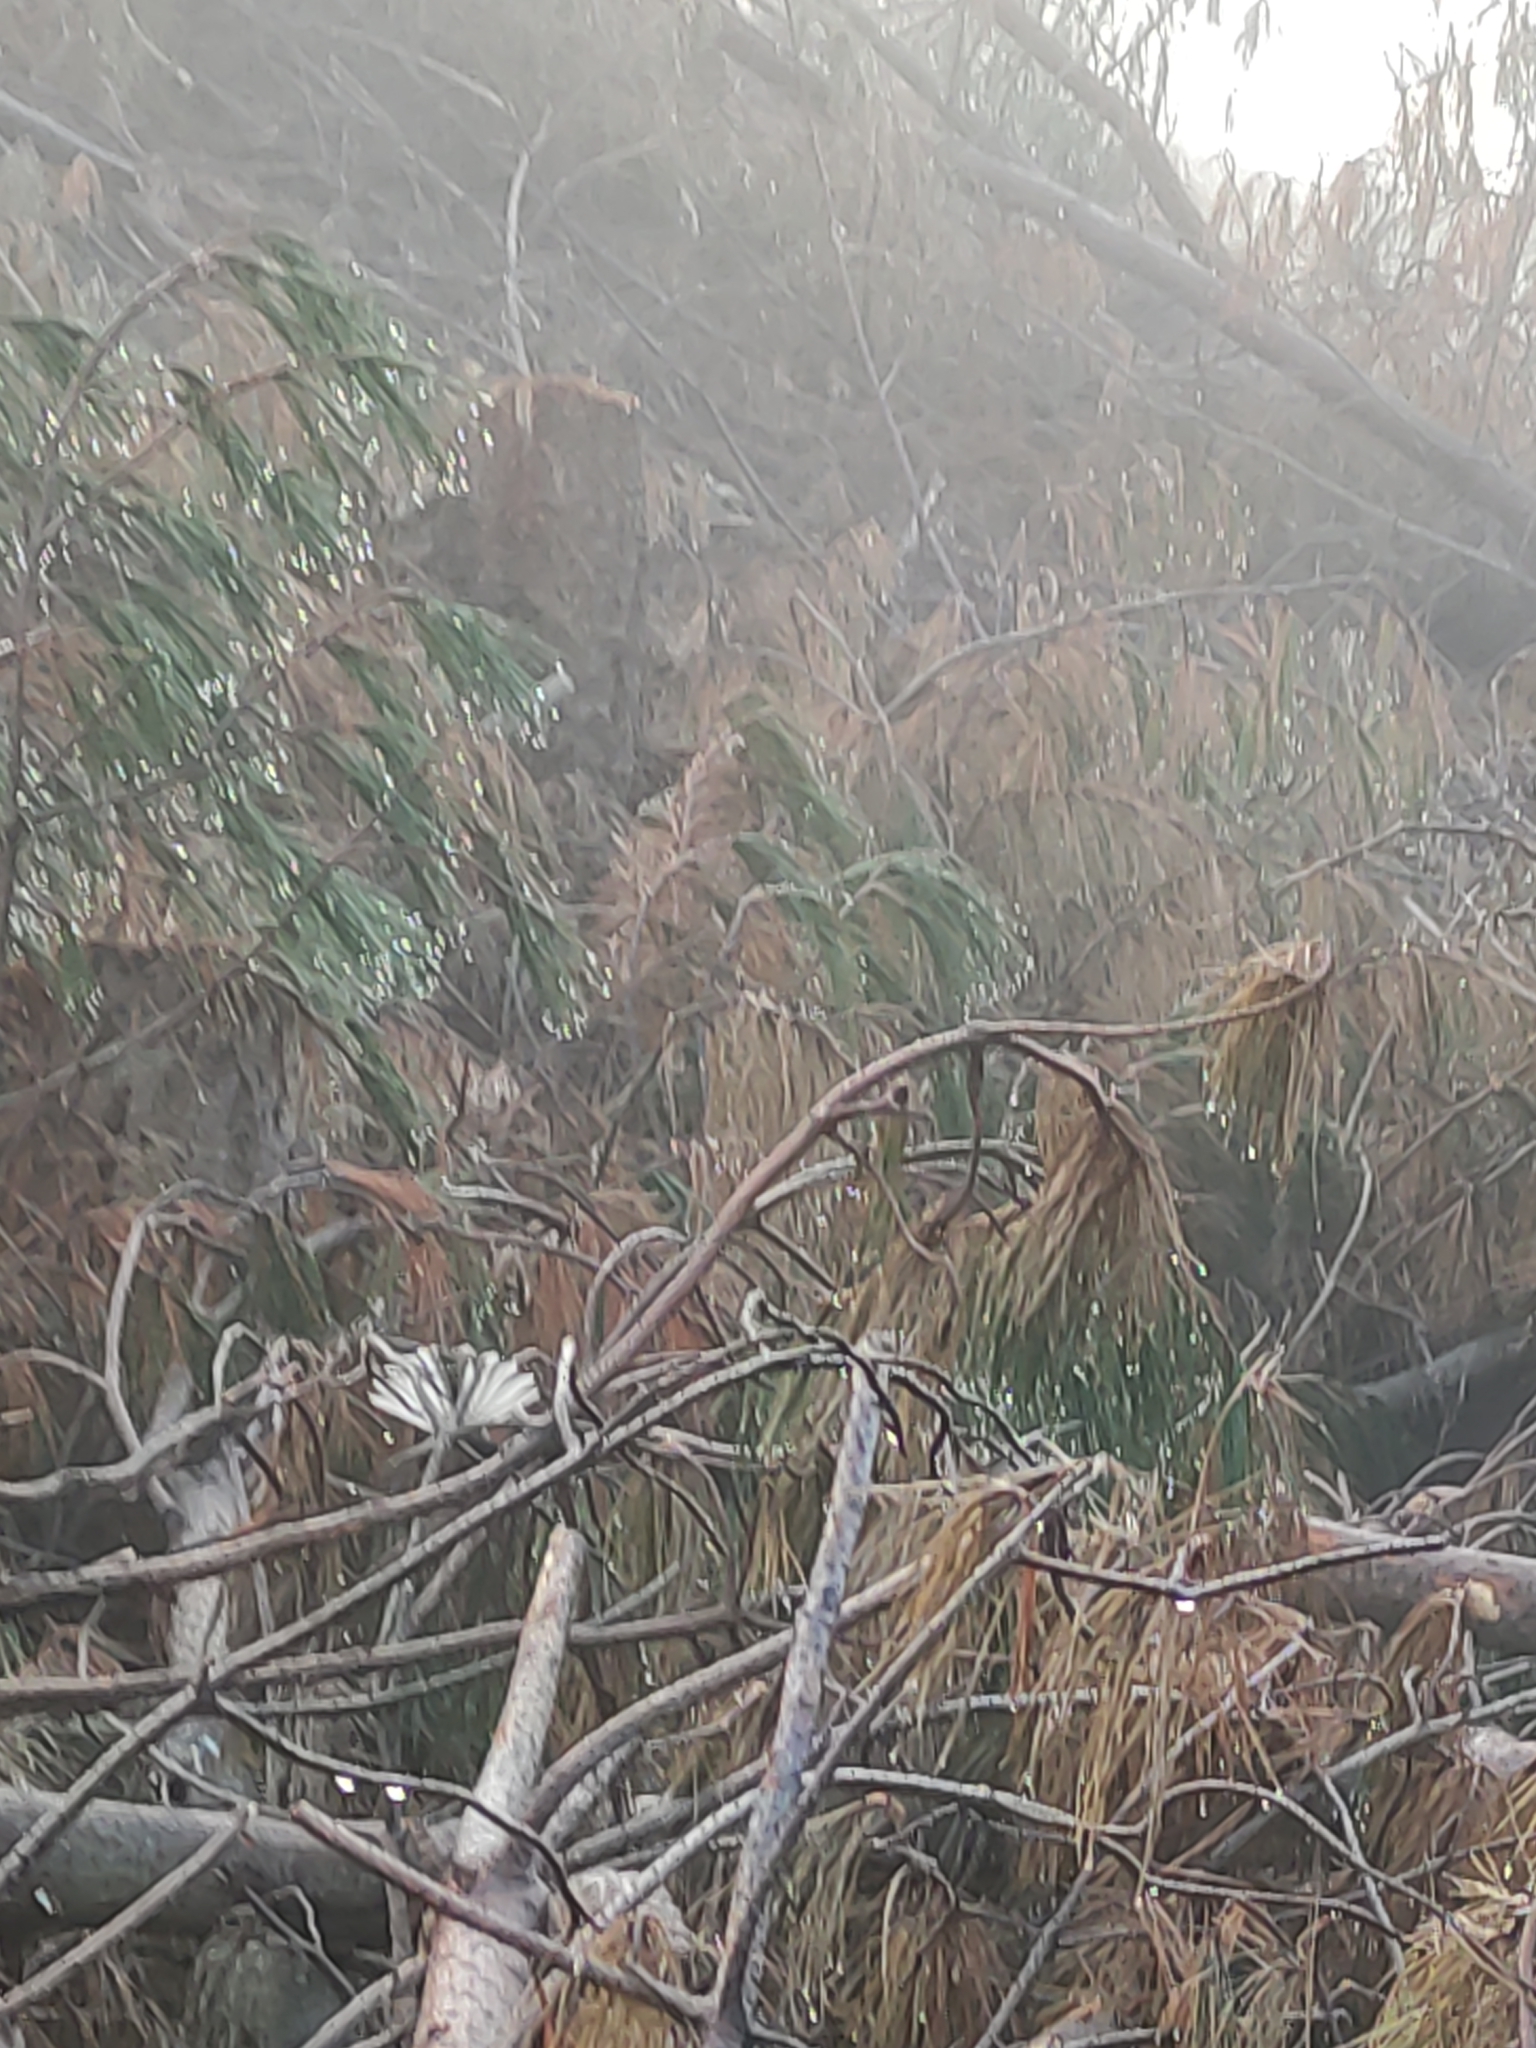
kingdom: Animalia
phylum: Chordata
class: Aves
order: Passeriformes
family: Rhipiduridae
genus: Rhipidura
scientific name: Rhipidura fuliginosa
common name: New zealand fantail
